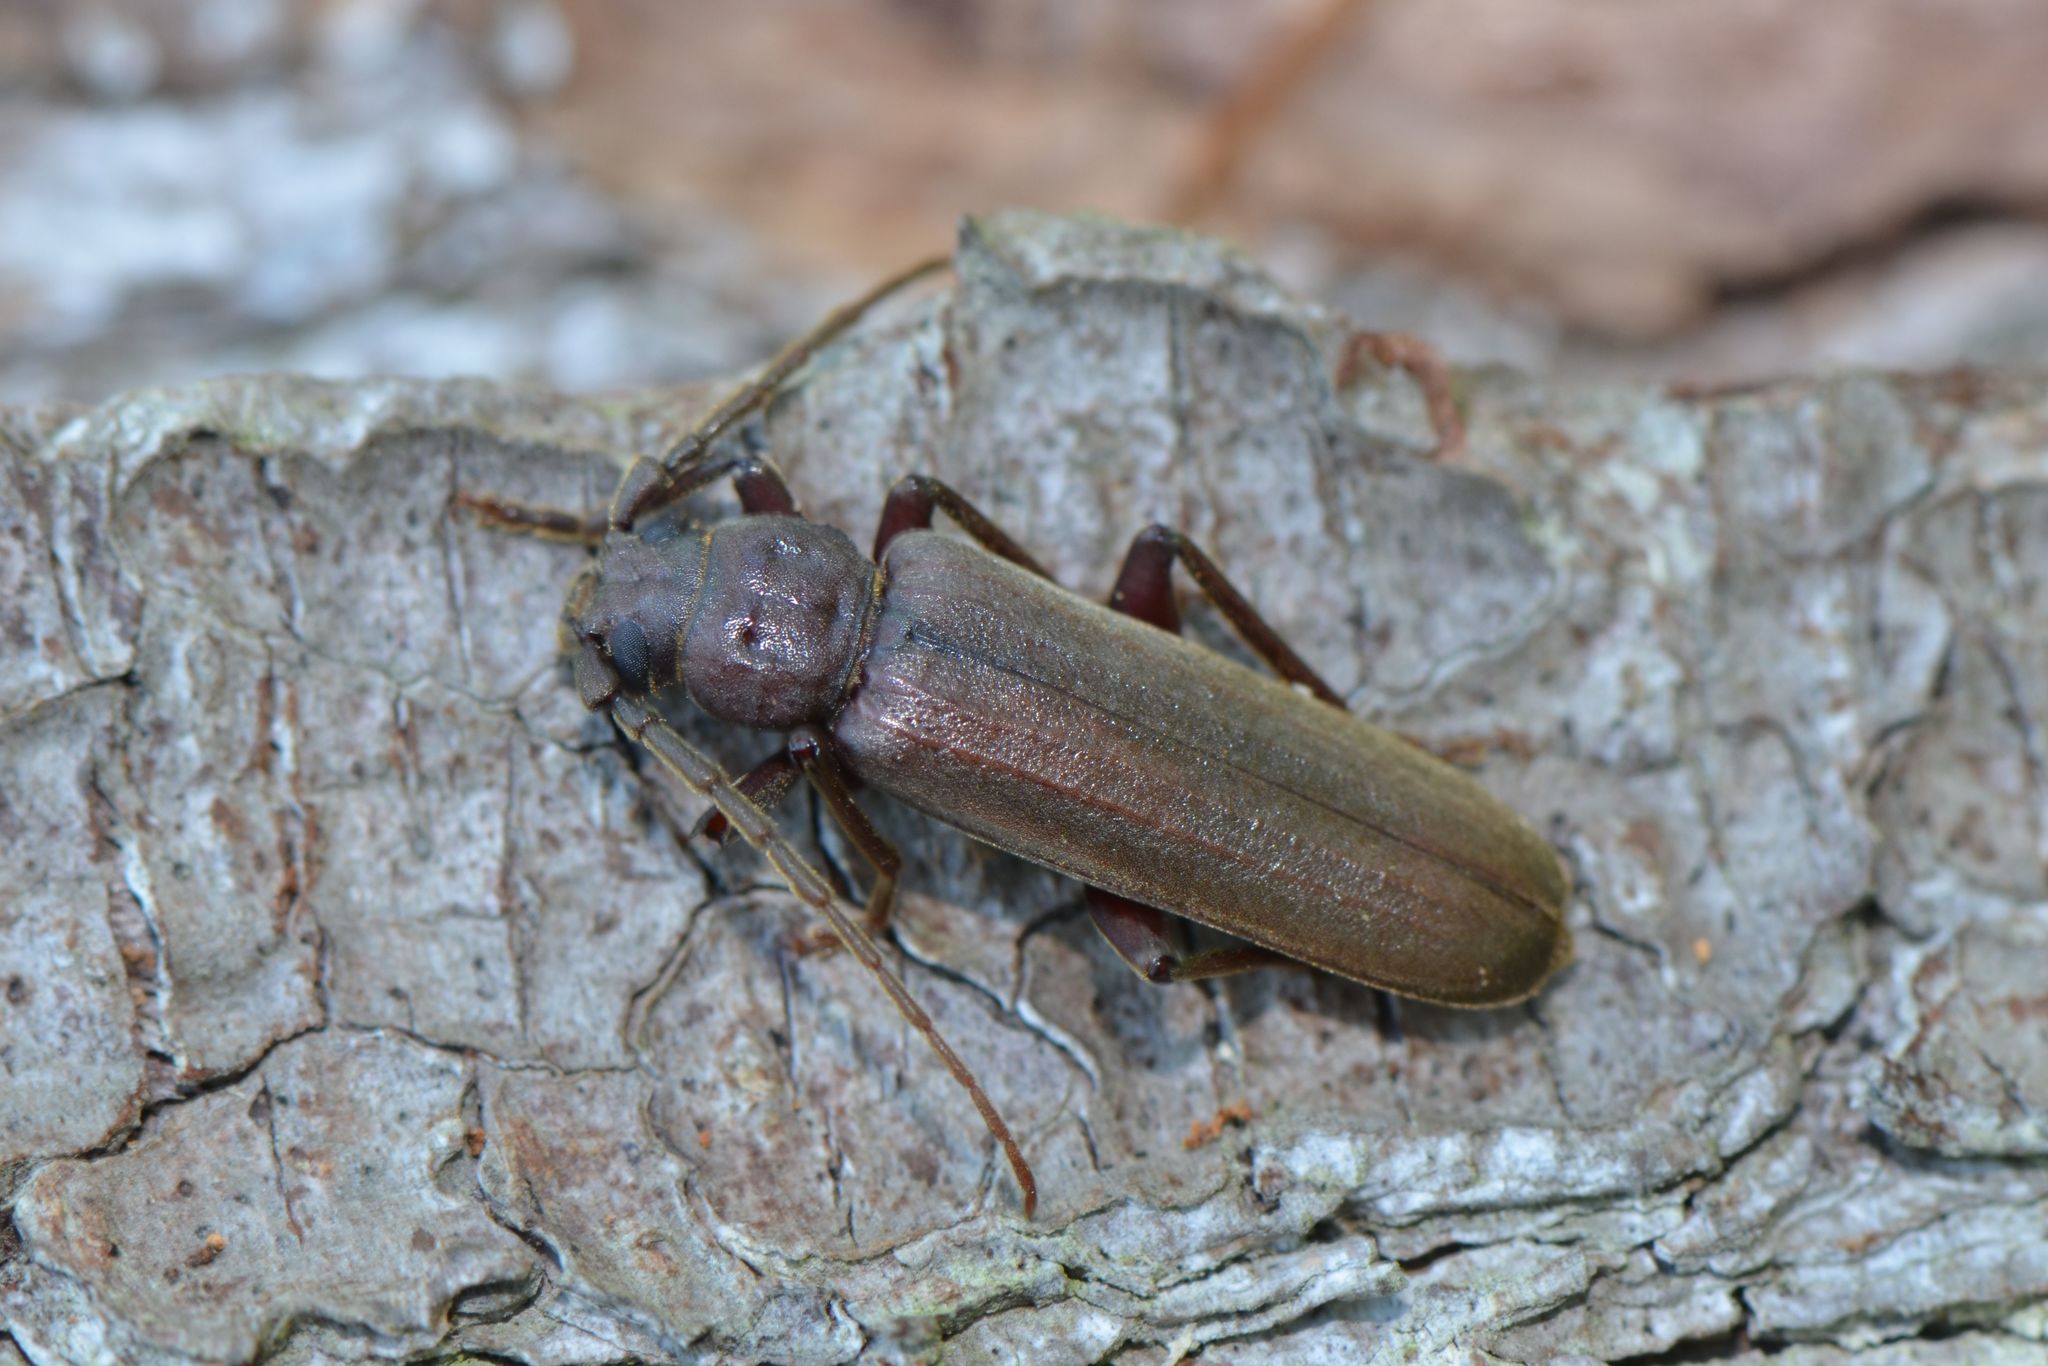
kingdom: Animalia
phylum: Arthropoda
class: Insecta
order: Coleoptera
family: Cerambycidae
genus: Arhopalus
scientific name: Arhopalus rusticus
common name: Rust pine borer
